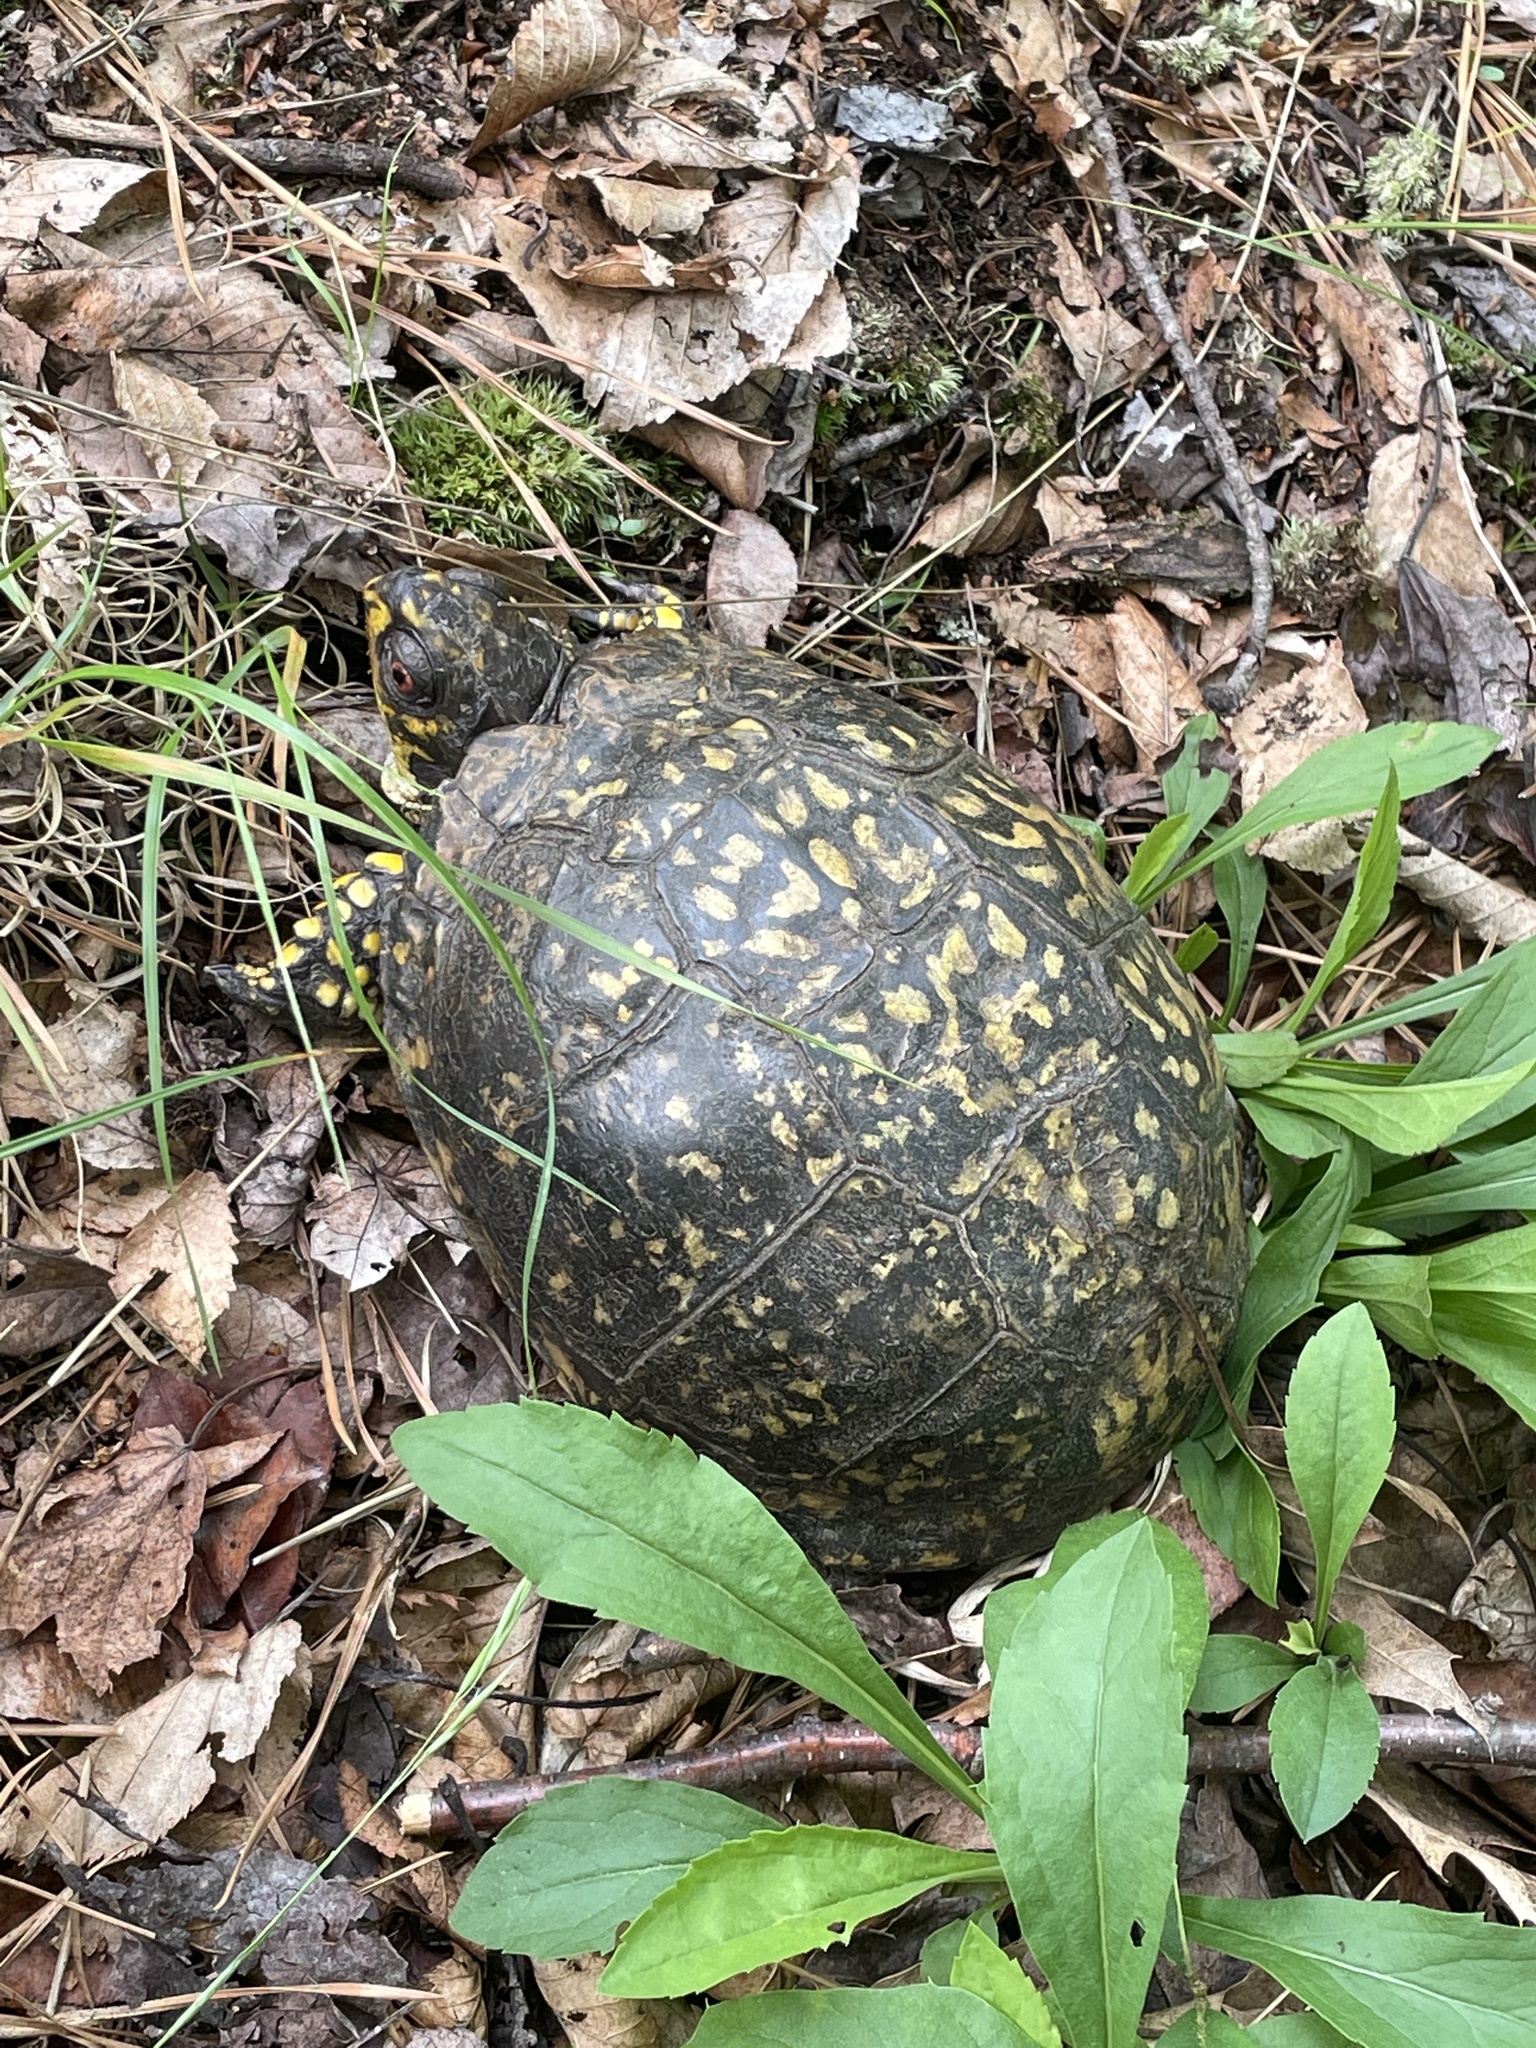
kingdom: Animalia
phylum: Chordata
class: Testudines
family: Emydidae
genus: Terrapene
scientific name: Terrapene carolina
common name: Common box turtle
